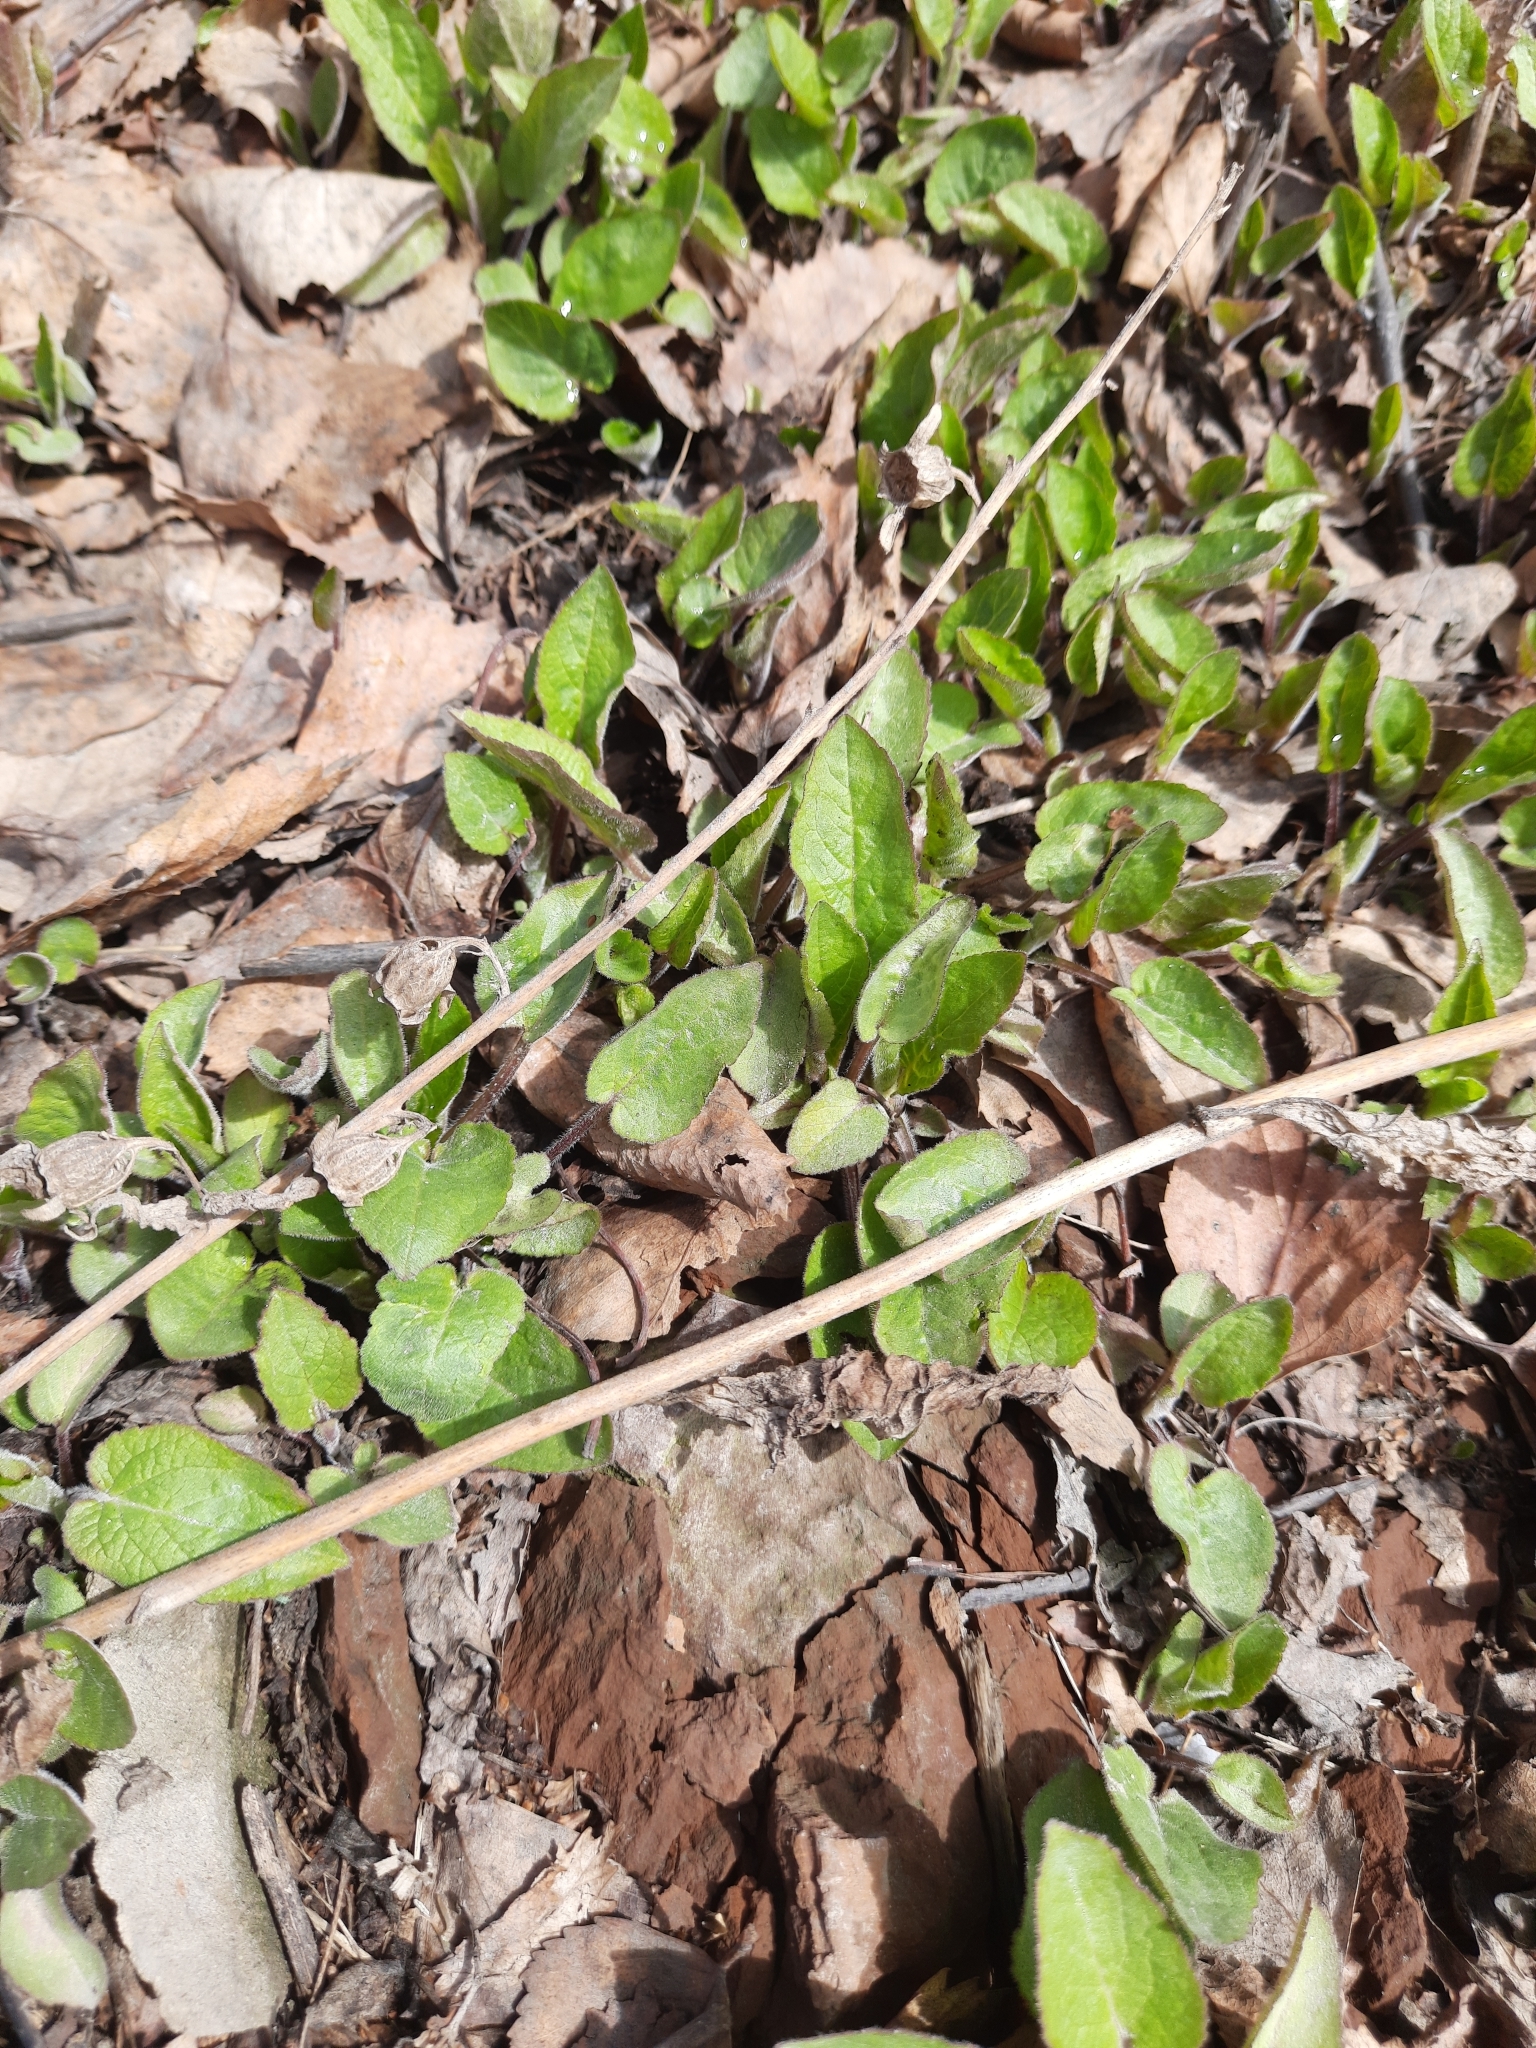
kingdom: Plantae
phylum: Tracheophyta
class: Magnoliopsida
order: Asterales
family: Campanulaceae
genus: Campanula
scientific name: Campanula rapunculoides
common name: Creeping bellflower
